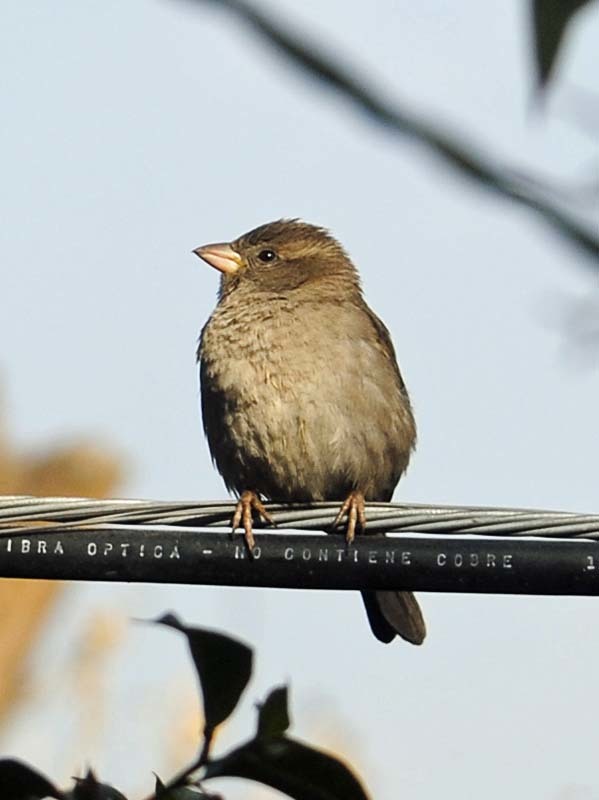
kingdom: Animalia
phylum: Chordata
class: Aves
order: Passeriformes
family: Passeridae
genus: Passer
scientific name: Passer domesticus
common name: House sparrow
